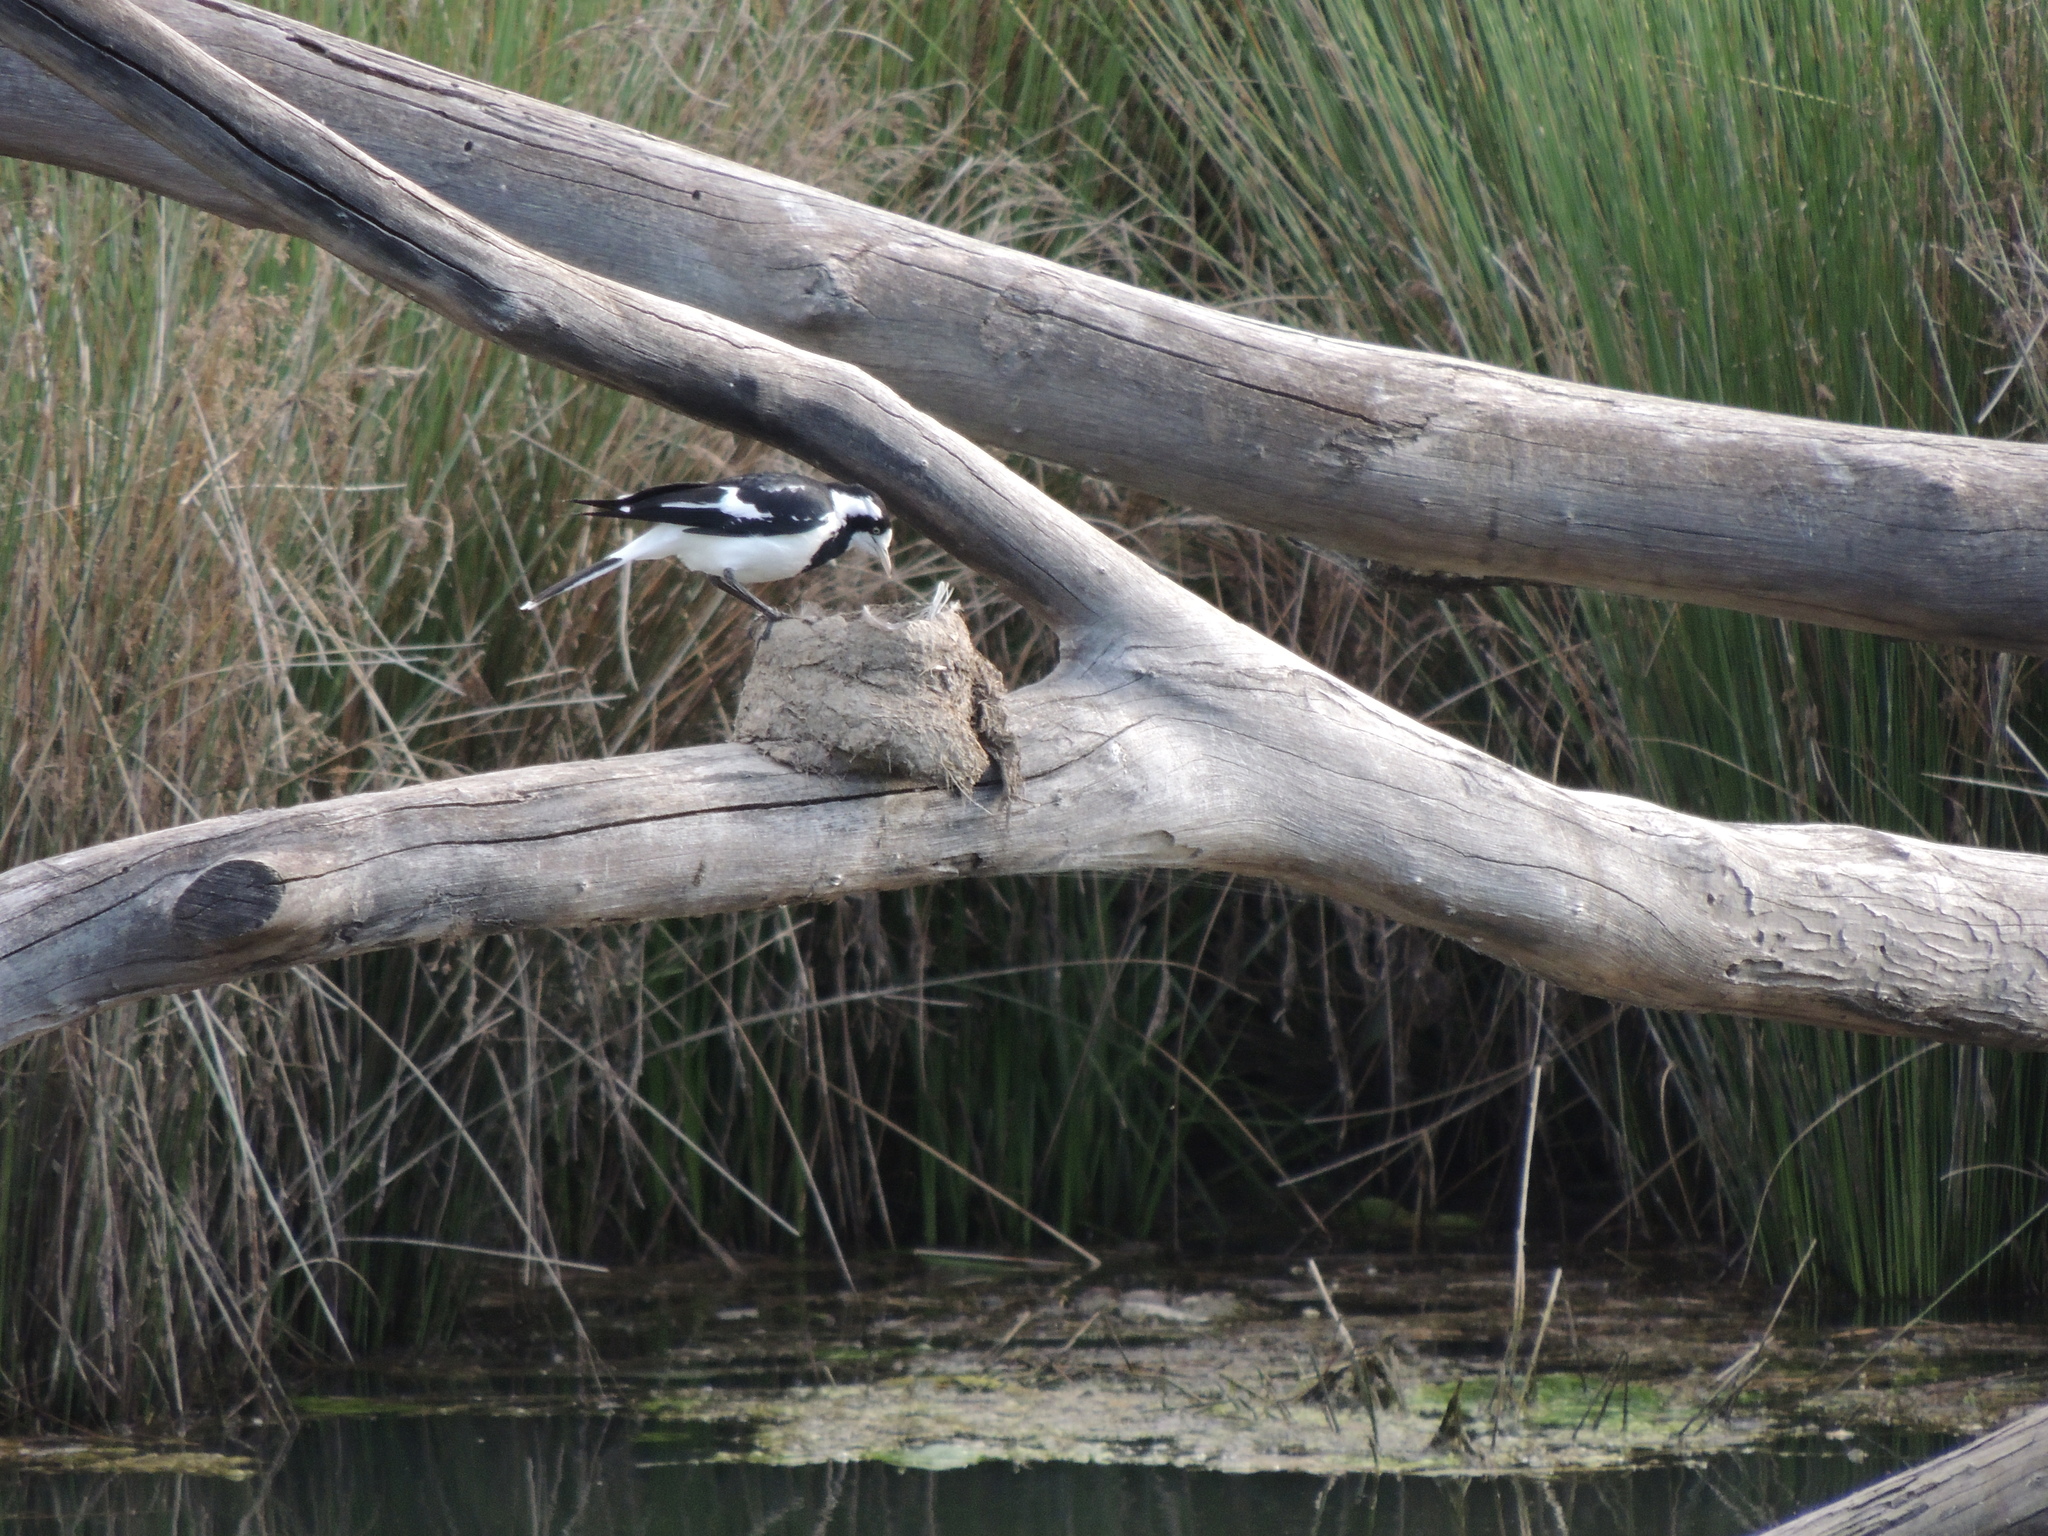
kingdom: Animalia
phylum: Chordata
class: Aves
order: Passeriformes
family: Monarchidae
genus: Grallina
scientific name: Grallina cyanoleuca
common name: Magpie-lark
